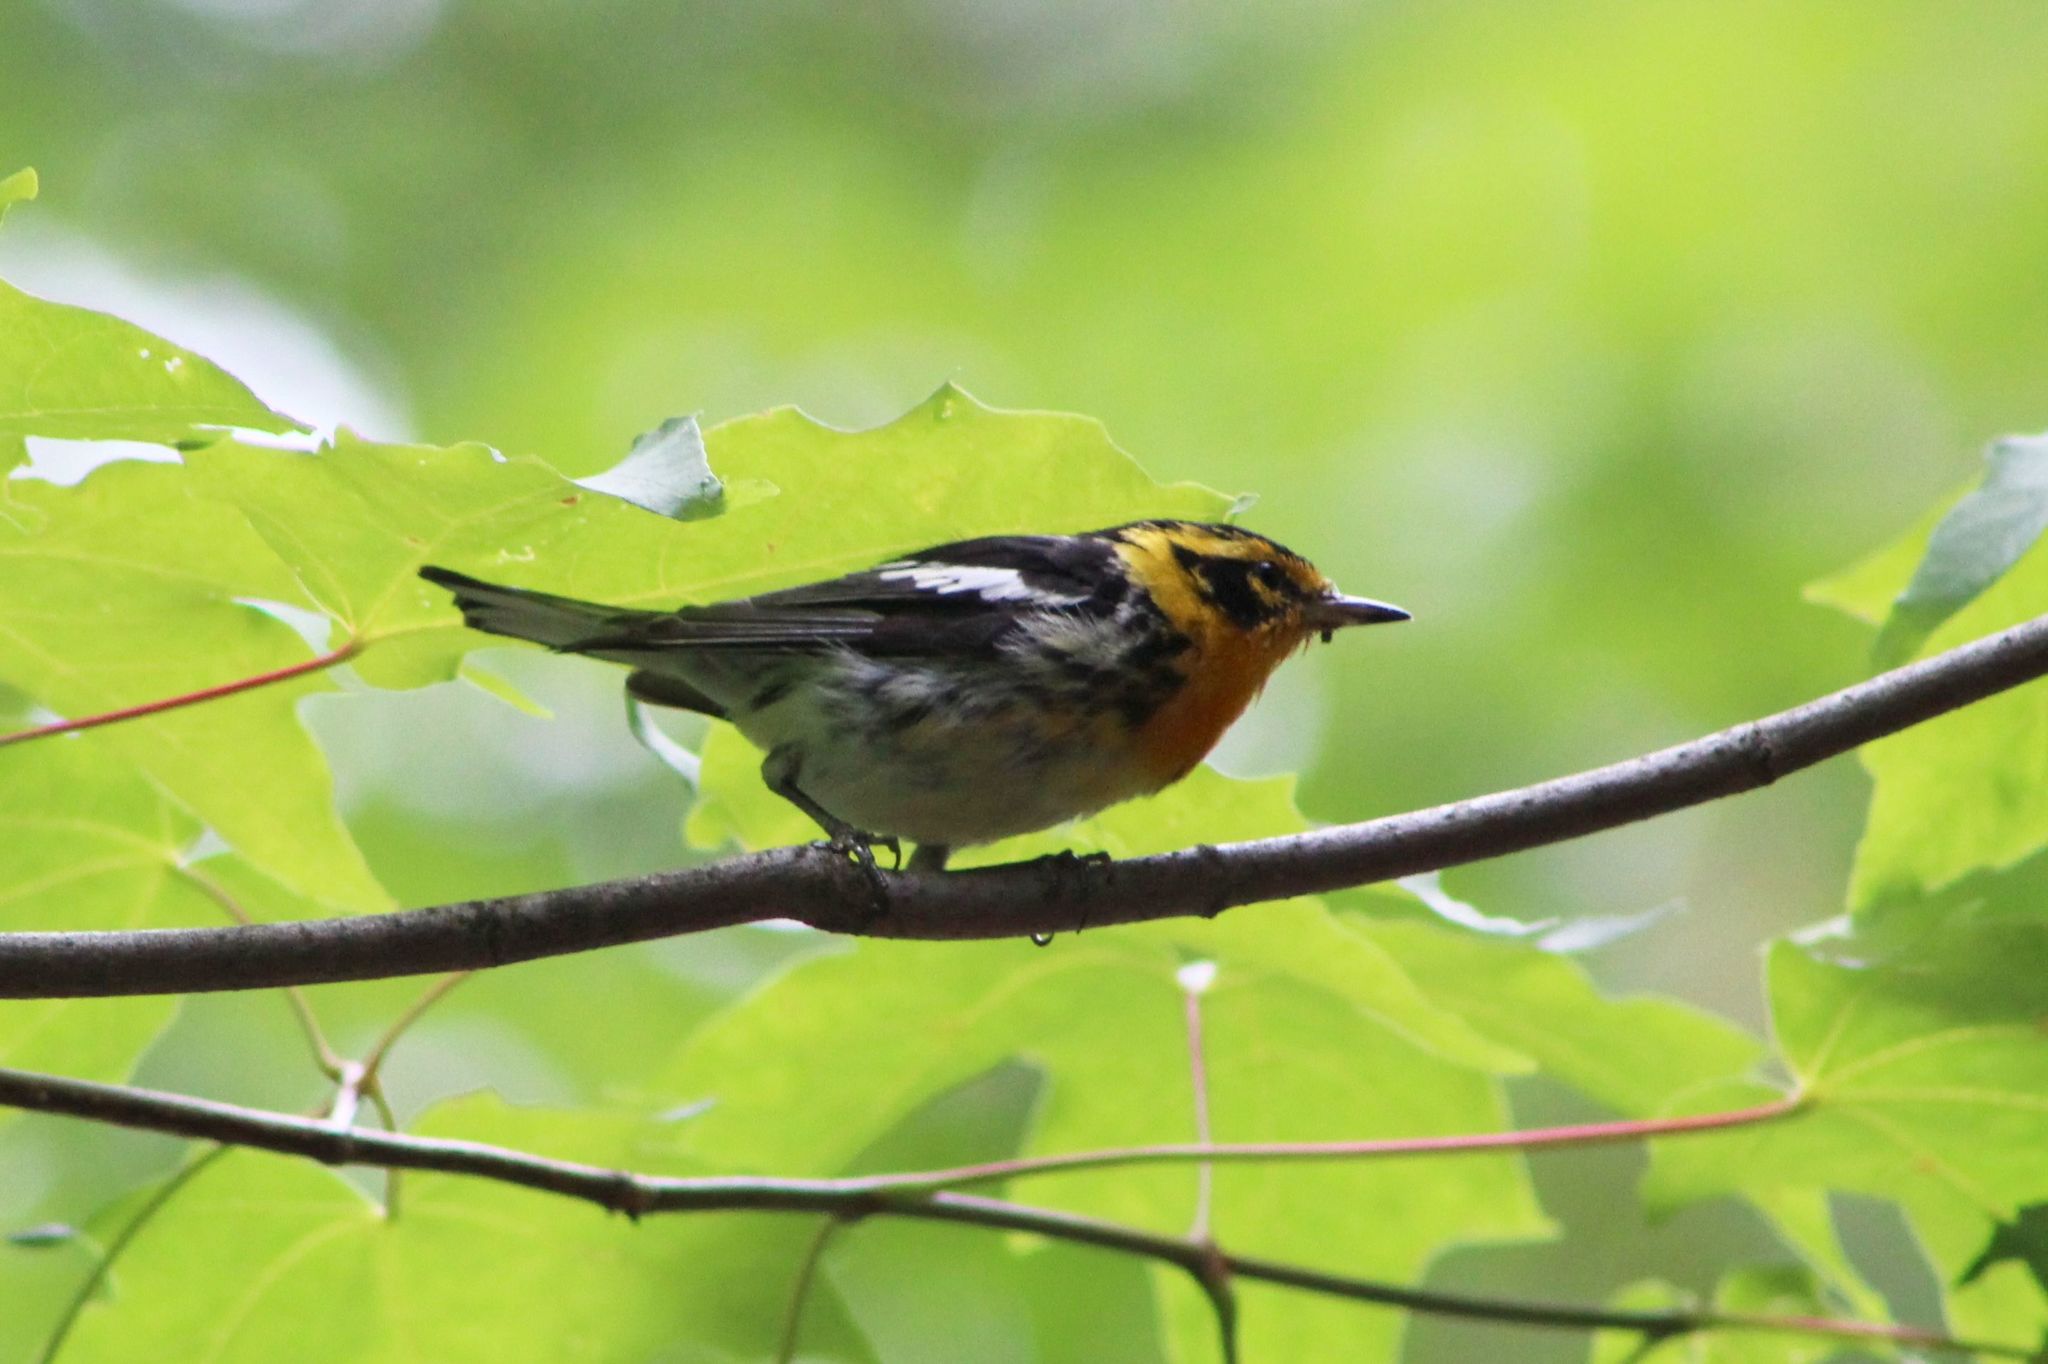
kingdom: Animalia
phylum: Chordata
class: Aves
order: Passeriformes
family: Parulidae
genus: Setophaga
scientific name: Setophaga fusca
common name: Blackburnian warbler
